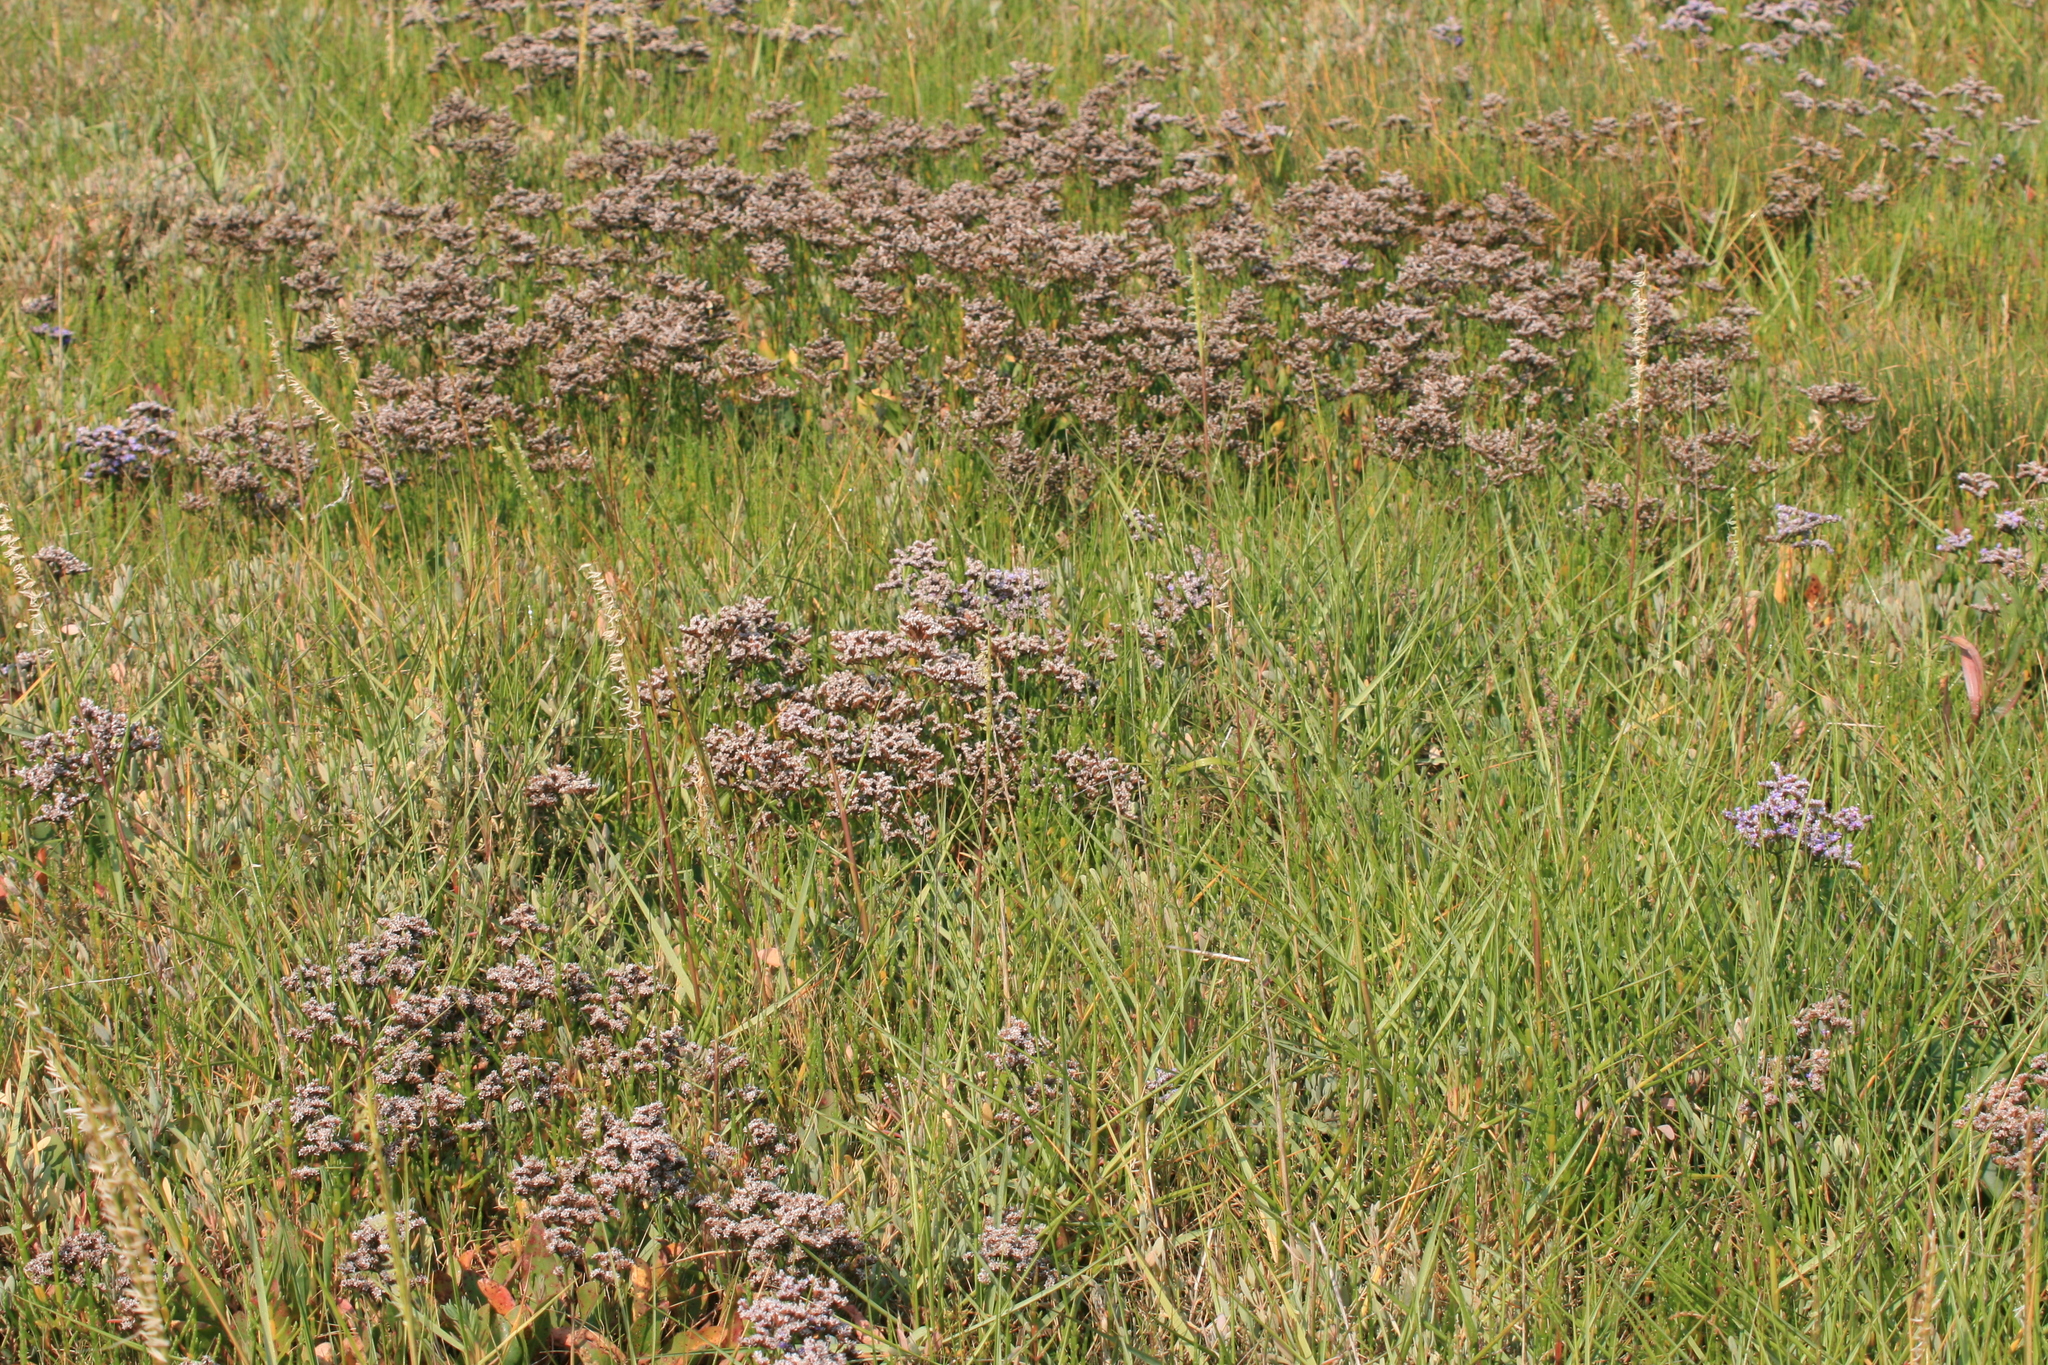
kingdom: Plantae
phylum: Tracheophyta
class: Magnoliopsida
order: Caryophyllales
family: Plumbaginaceae
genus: Limonium
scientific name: Limonium vulgare
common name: Common sea-lavender
